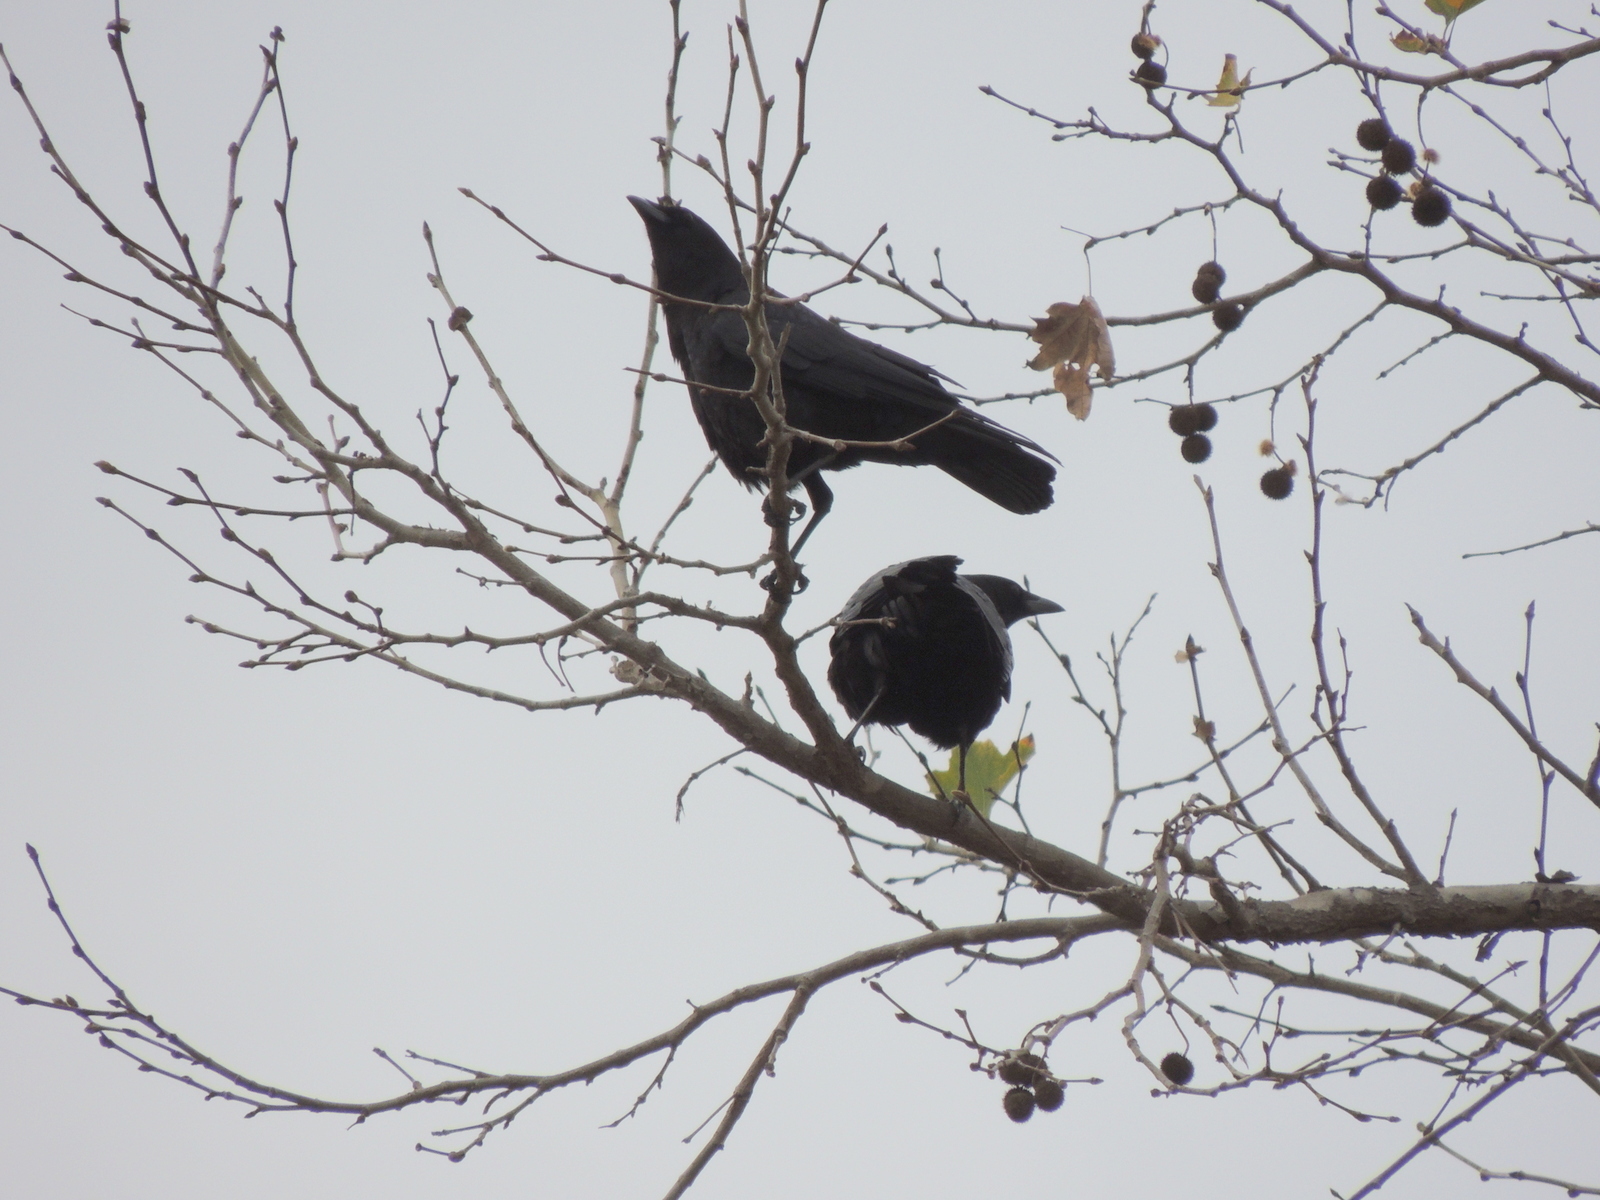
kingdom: Animalia
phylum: Chordata
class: Aves
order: Passeriformes
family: Corvidae
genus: Corvus
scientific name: Corvus brachyrhynchos
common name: American crow
